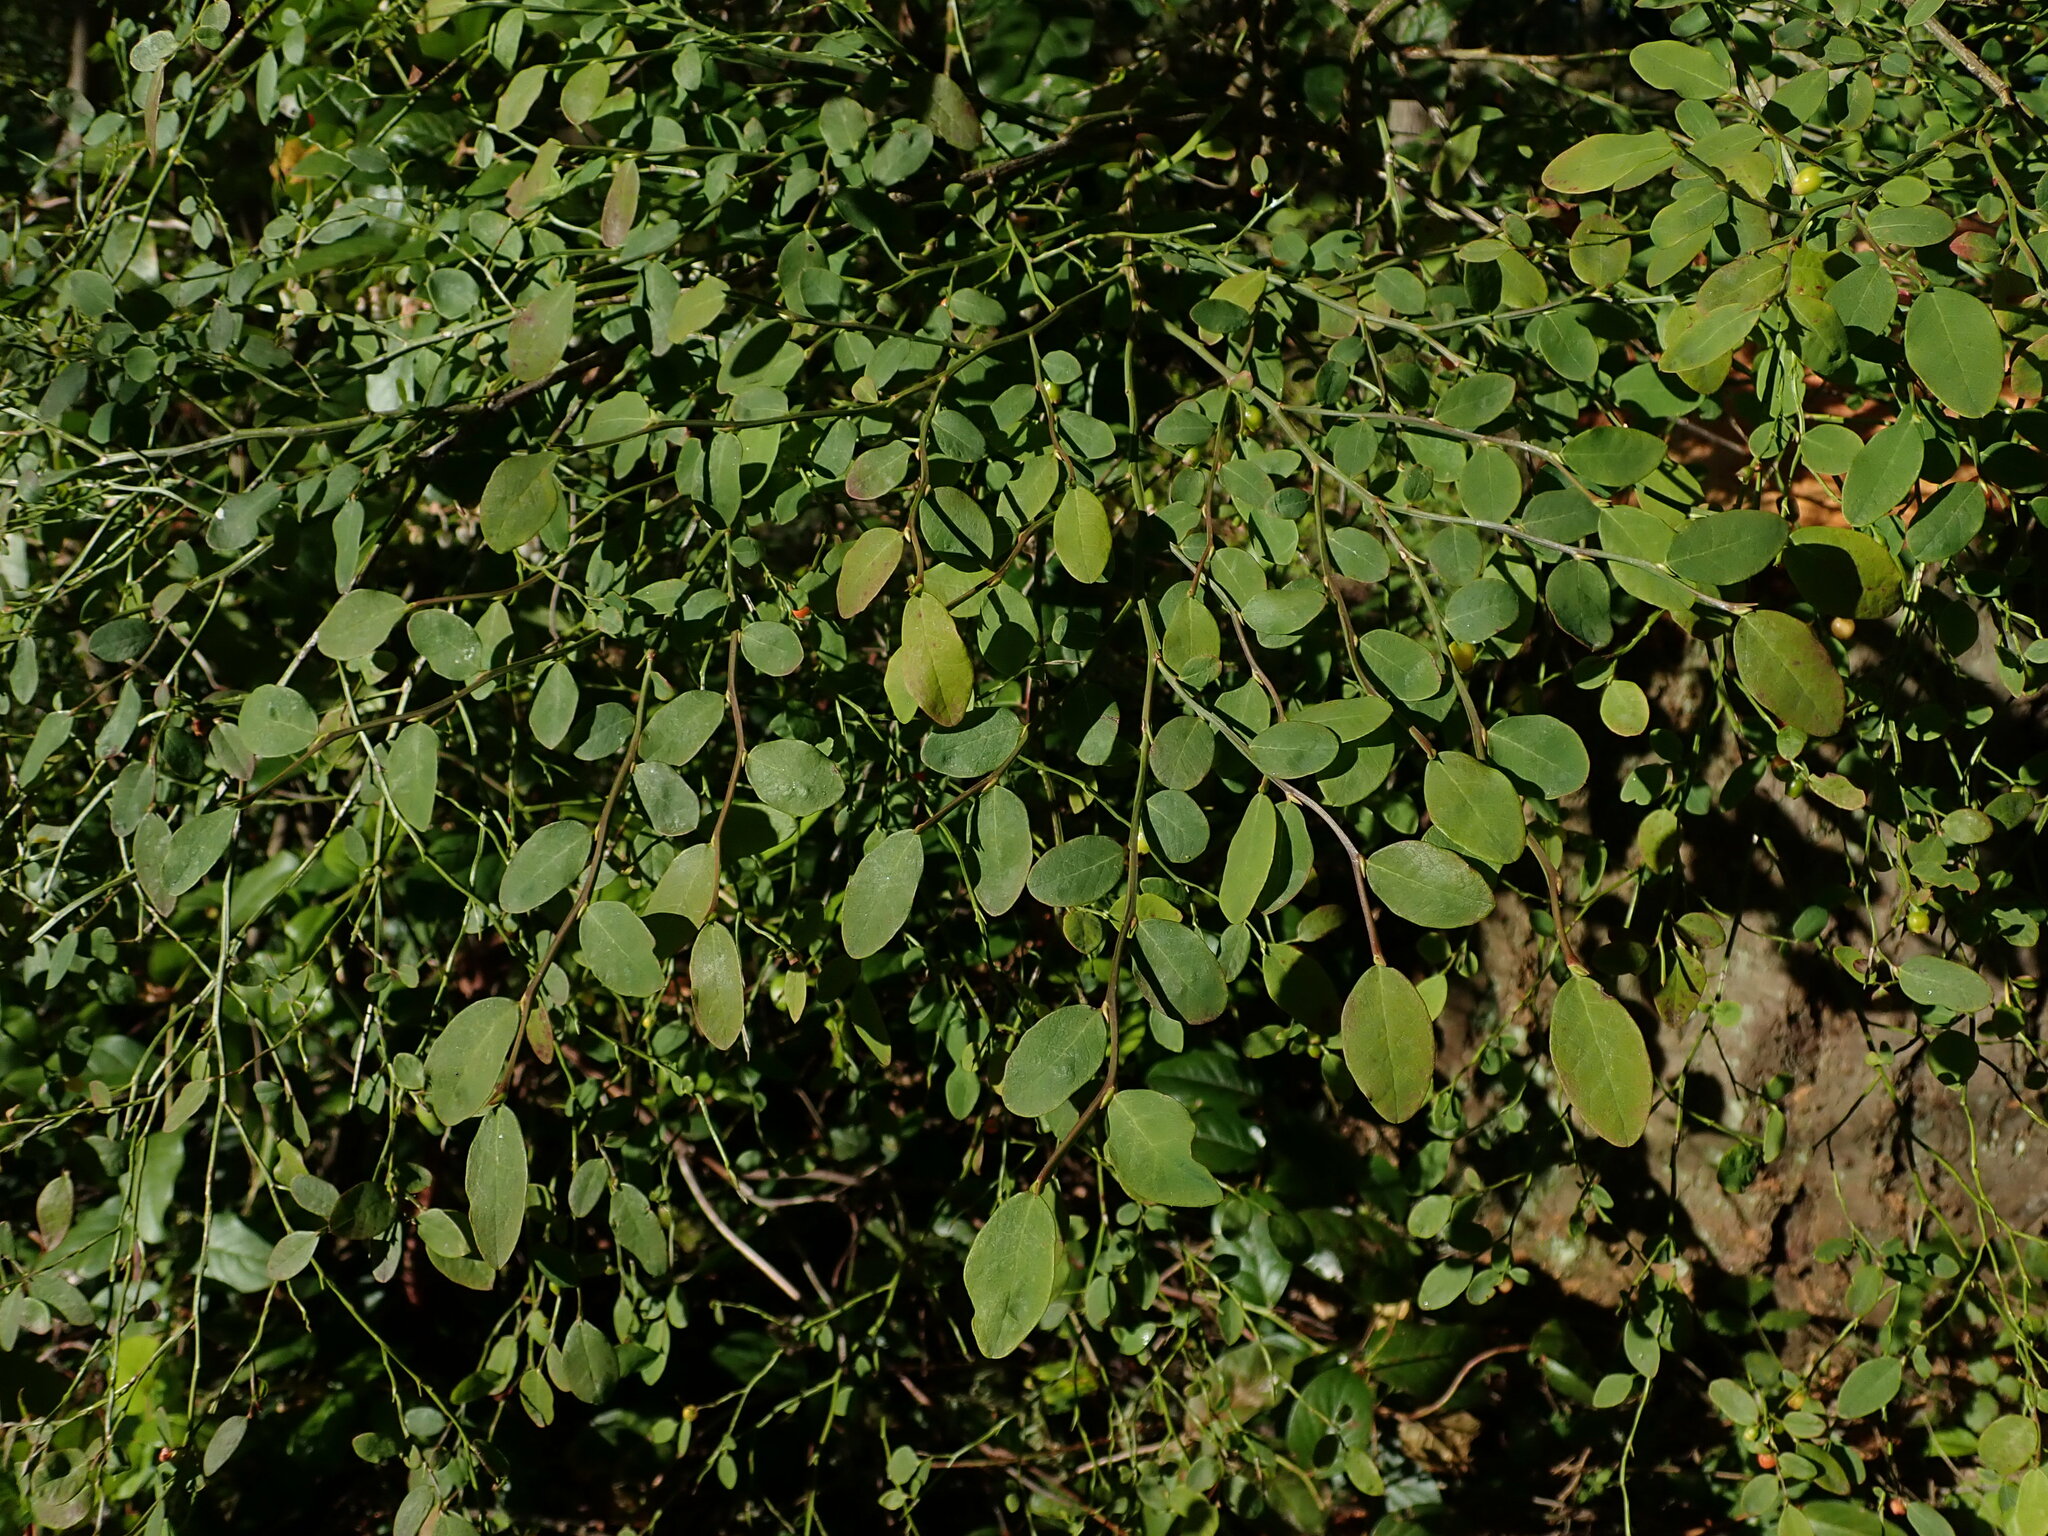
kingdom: Plantae
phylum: Tracheophyta
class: Magnoliopsida
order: Ericales
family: Ericaceae
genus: Vaccinium
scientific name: Vaccinium parvifolium
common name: Red-huckleberry
